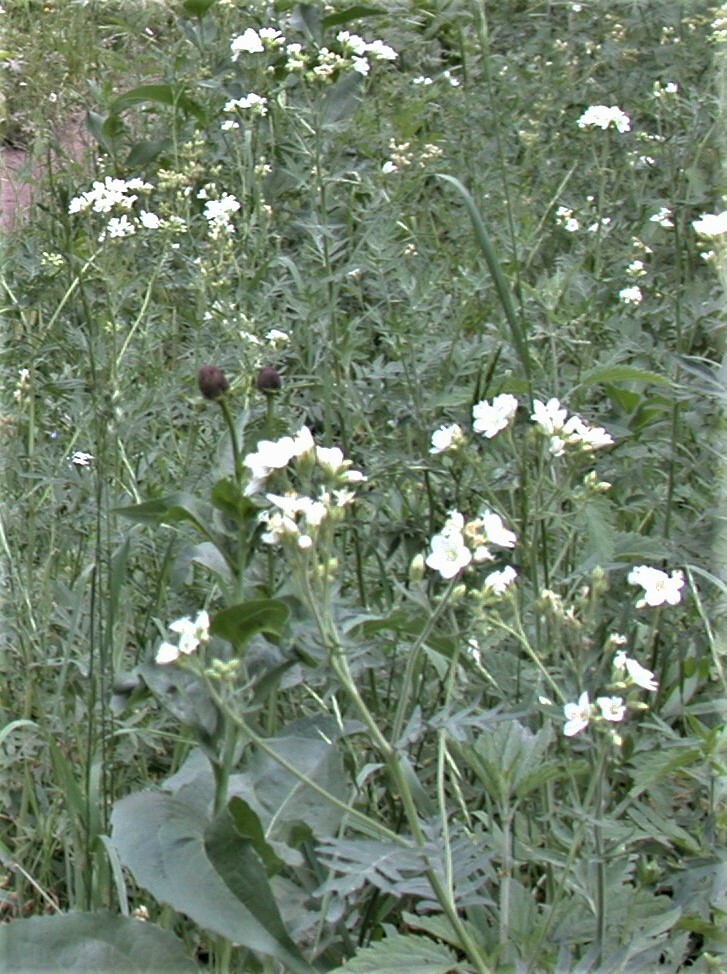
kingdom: Plantae
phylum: Tracheophyta
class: Magnoliopsida
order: Ericales
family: Polemoniaceae
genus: Polemonium
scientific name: Polemonium foliosissimum
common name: Leafy jacob's-ladder
